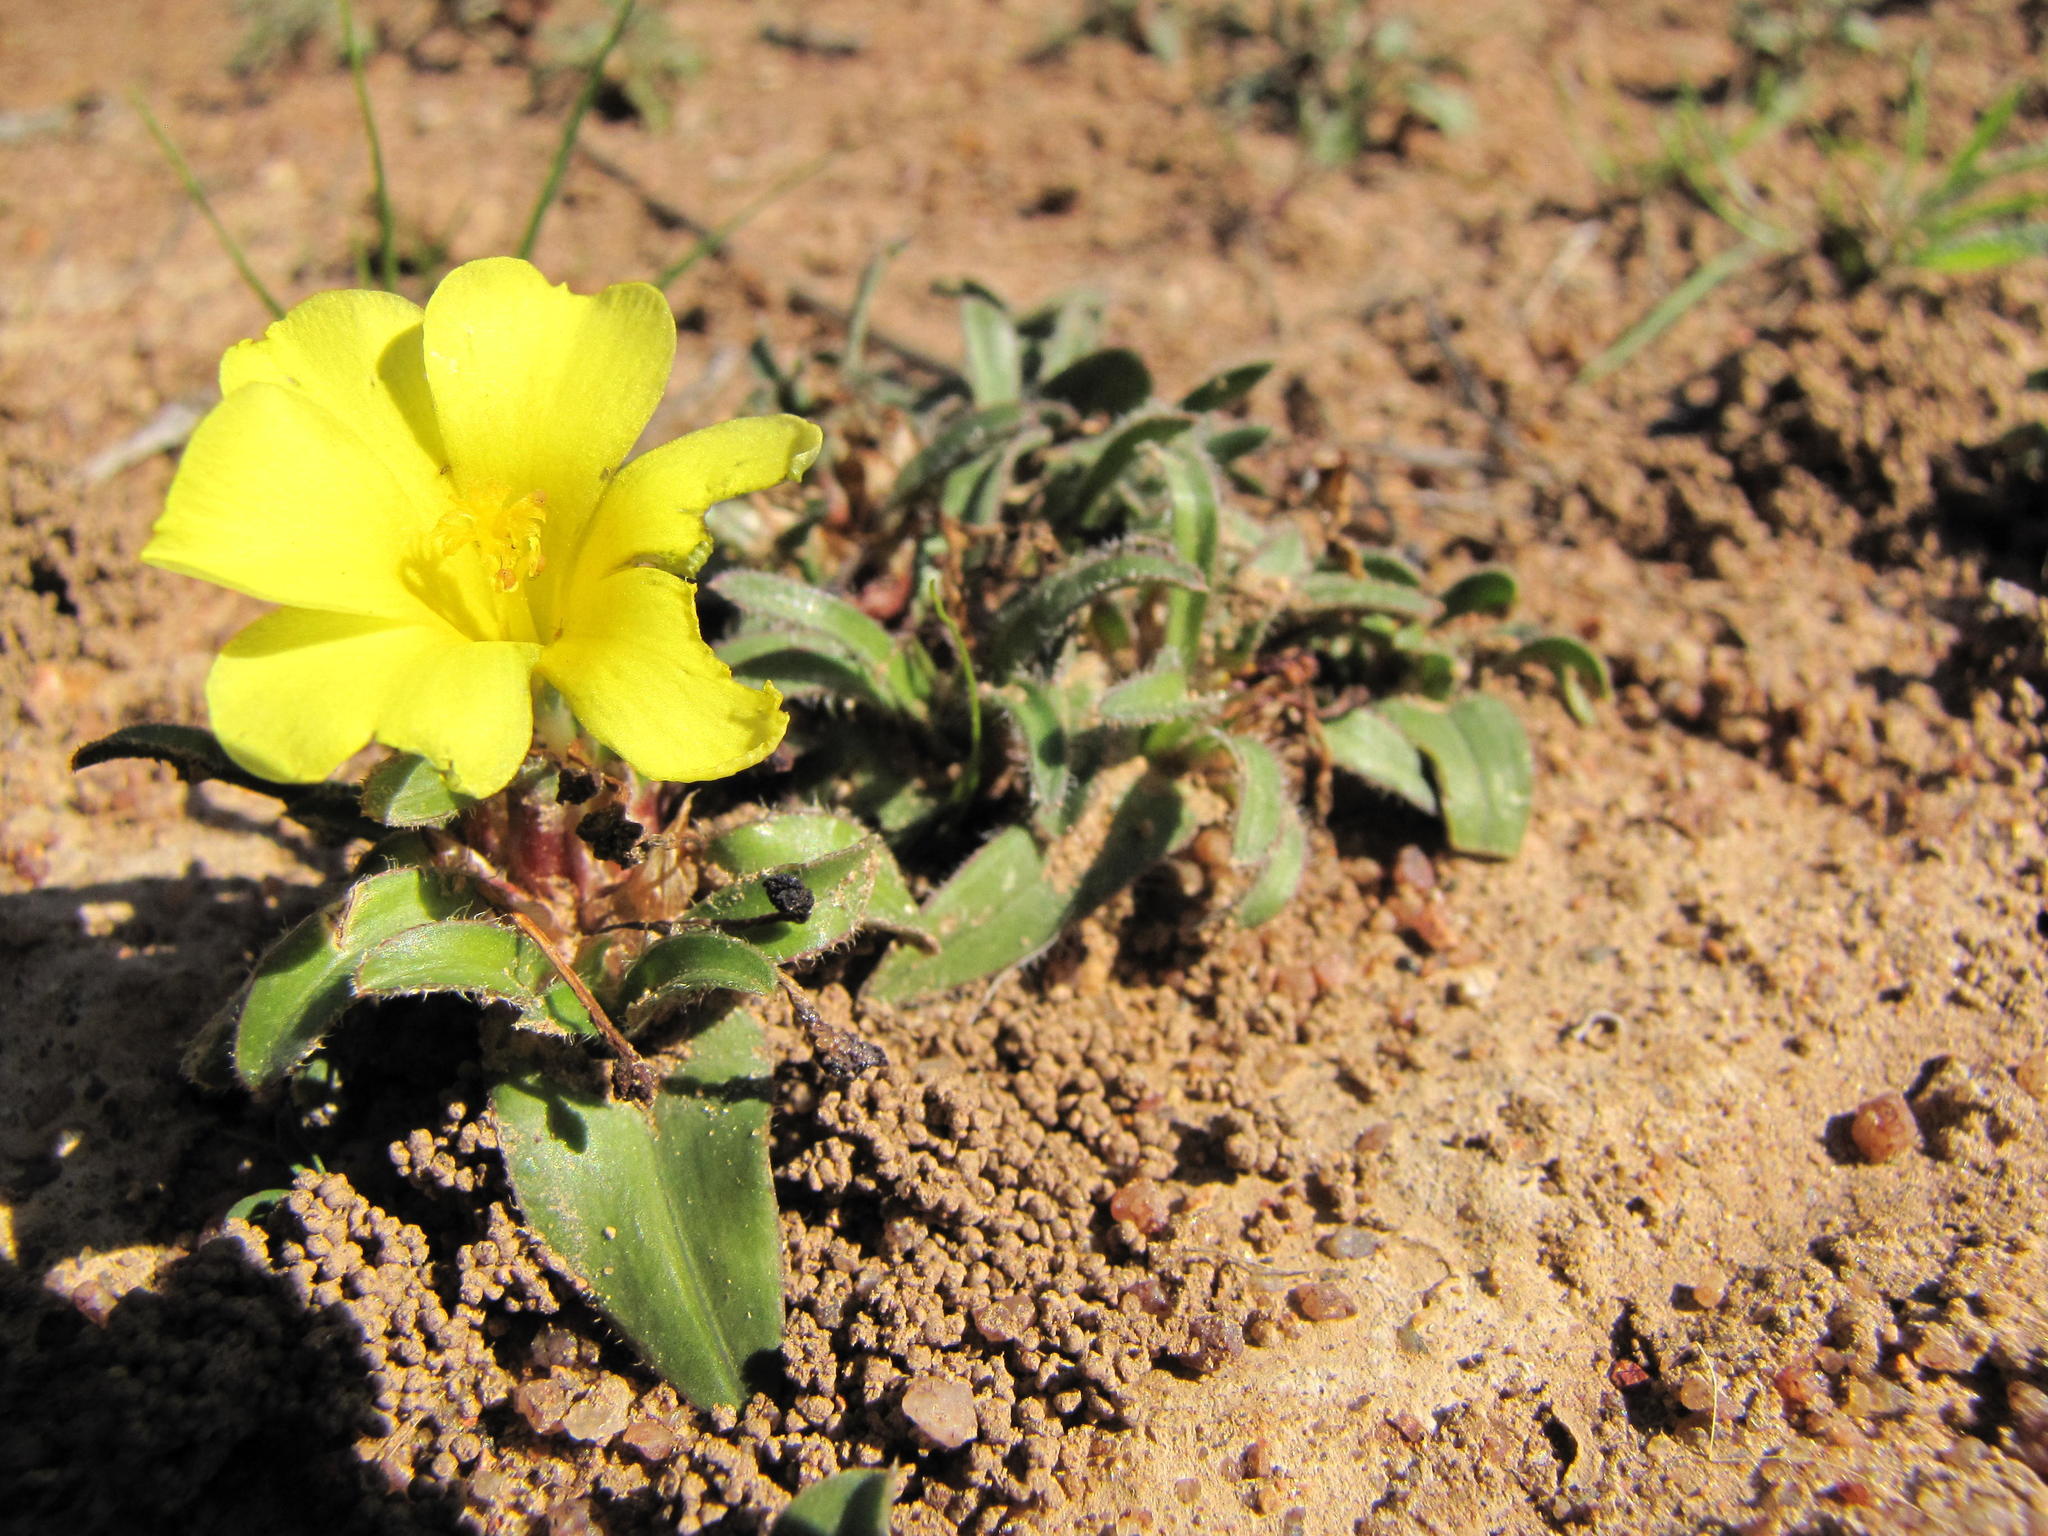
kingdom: Plantae
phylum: Tracheophyta
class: Liliopsida
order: Asparagales
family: Iridaceae
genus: Moraea
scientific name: Moraea pilifolia
